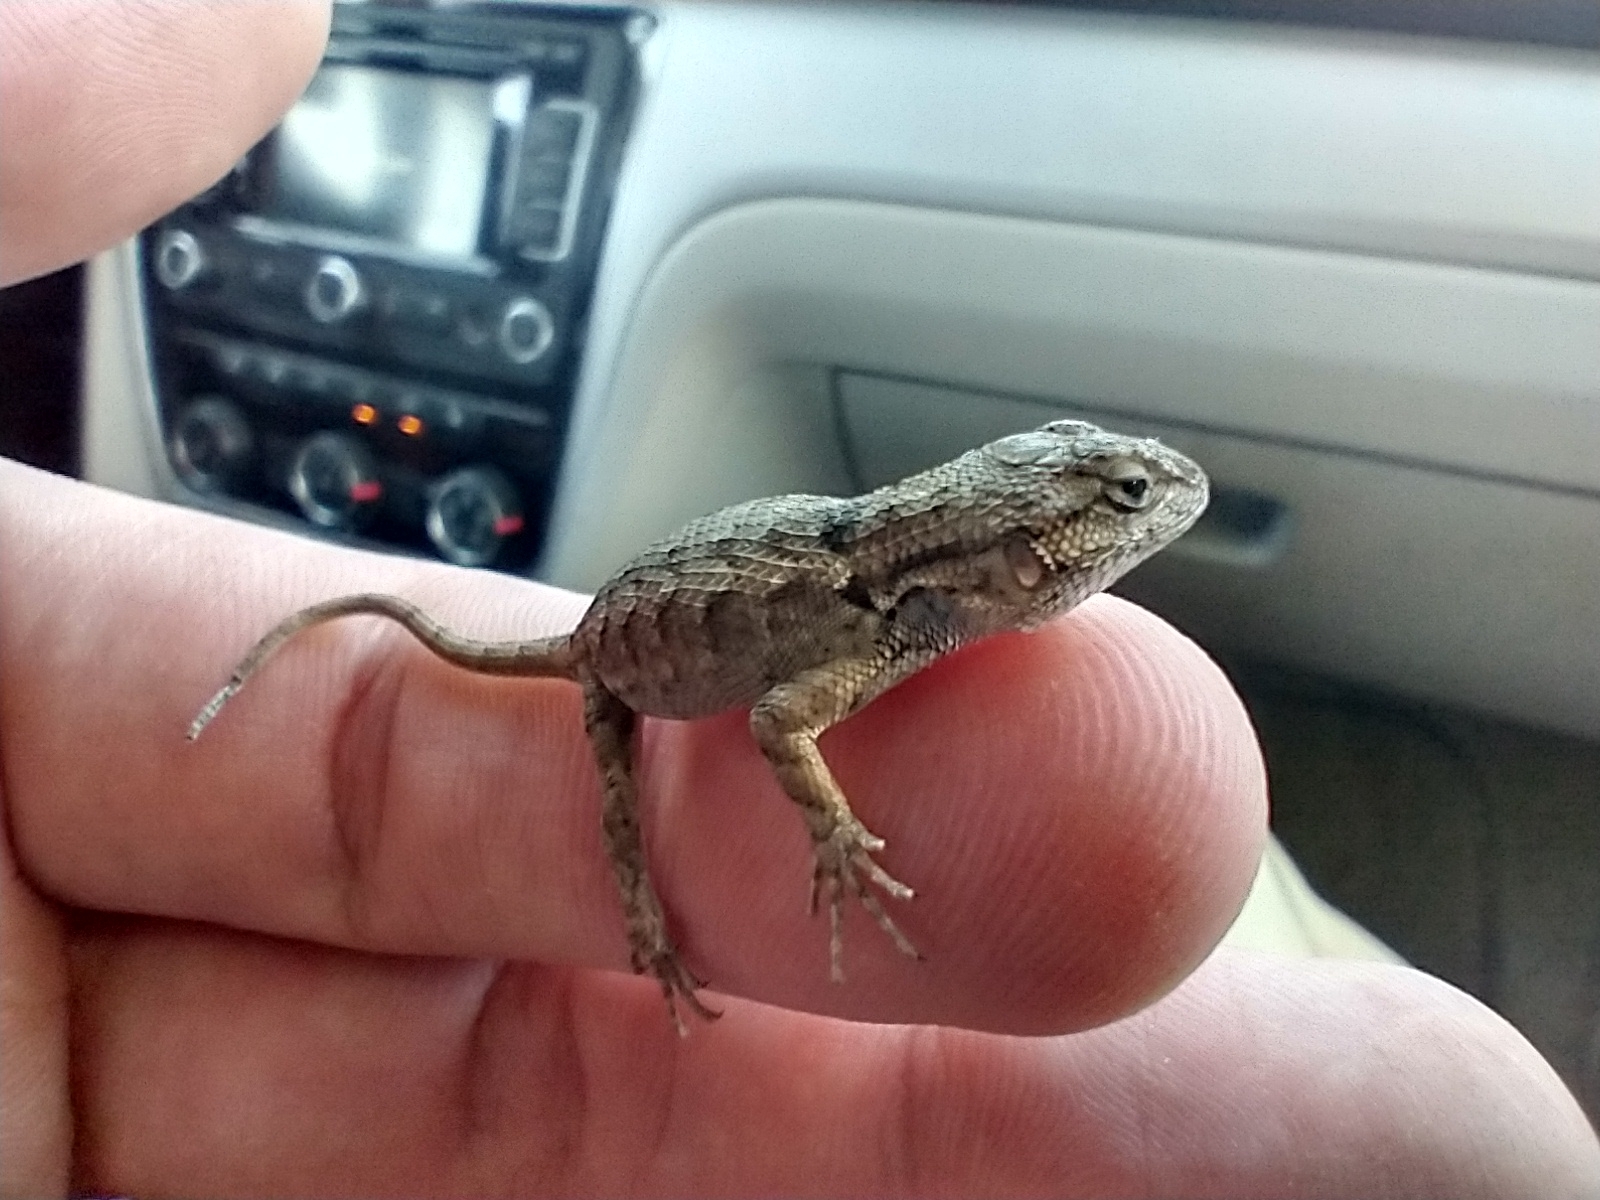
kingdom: Animalia
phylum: Chordata
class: Squamata
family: Phrynosomatidae
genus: Sceloporus
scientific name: Sceloporus occidentalis
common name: Western fence lizard
